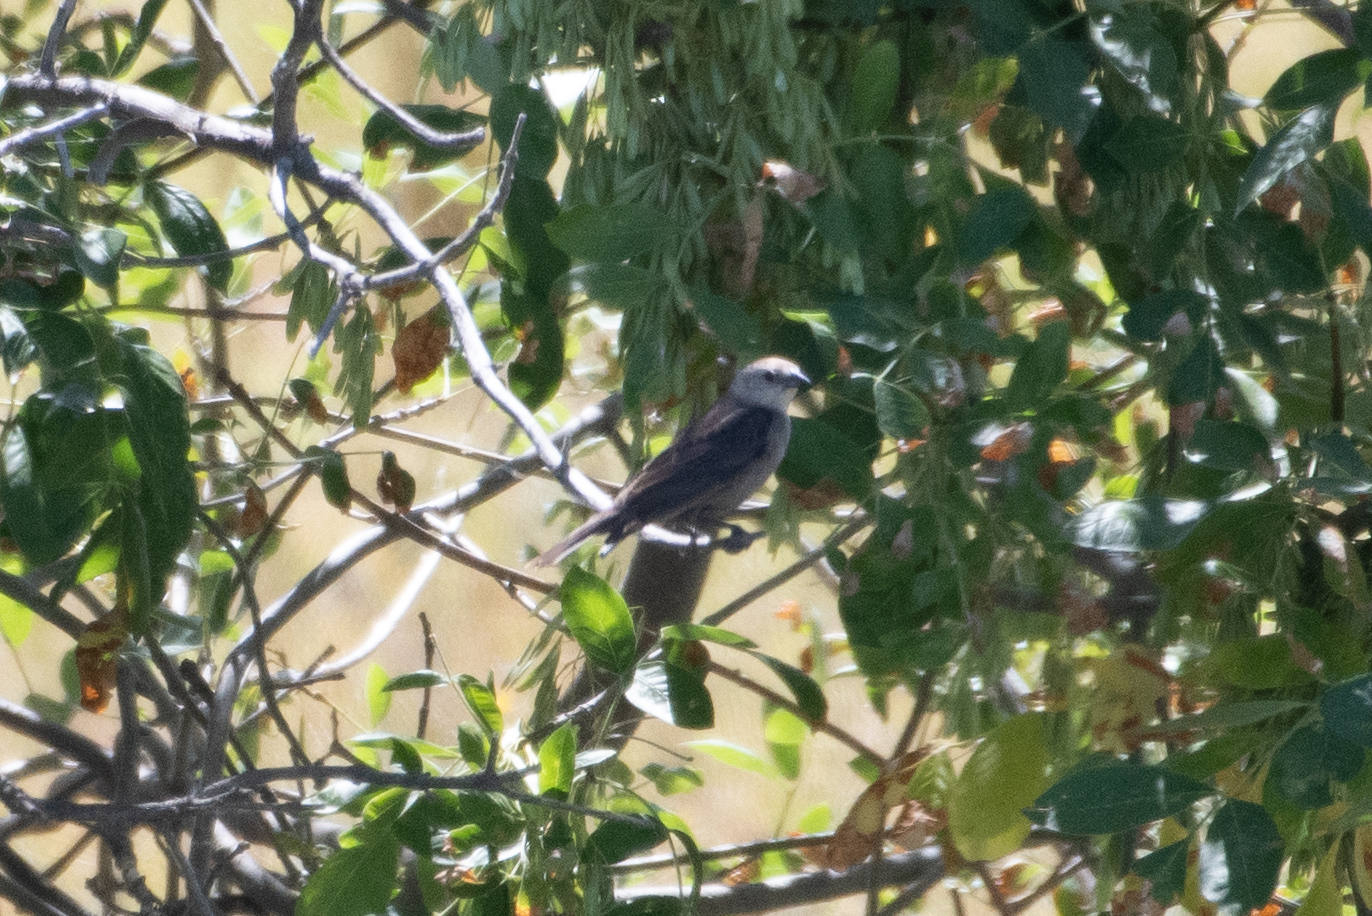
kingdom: Animalia
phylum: Chordata
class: Aves
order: Passeriformes
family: Icteridae
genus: Molothrus
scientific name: Molothrus ater
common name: Brown-headed cowbird
